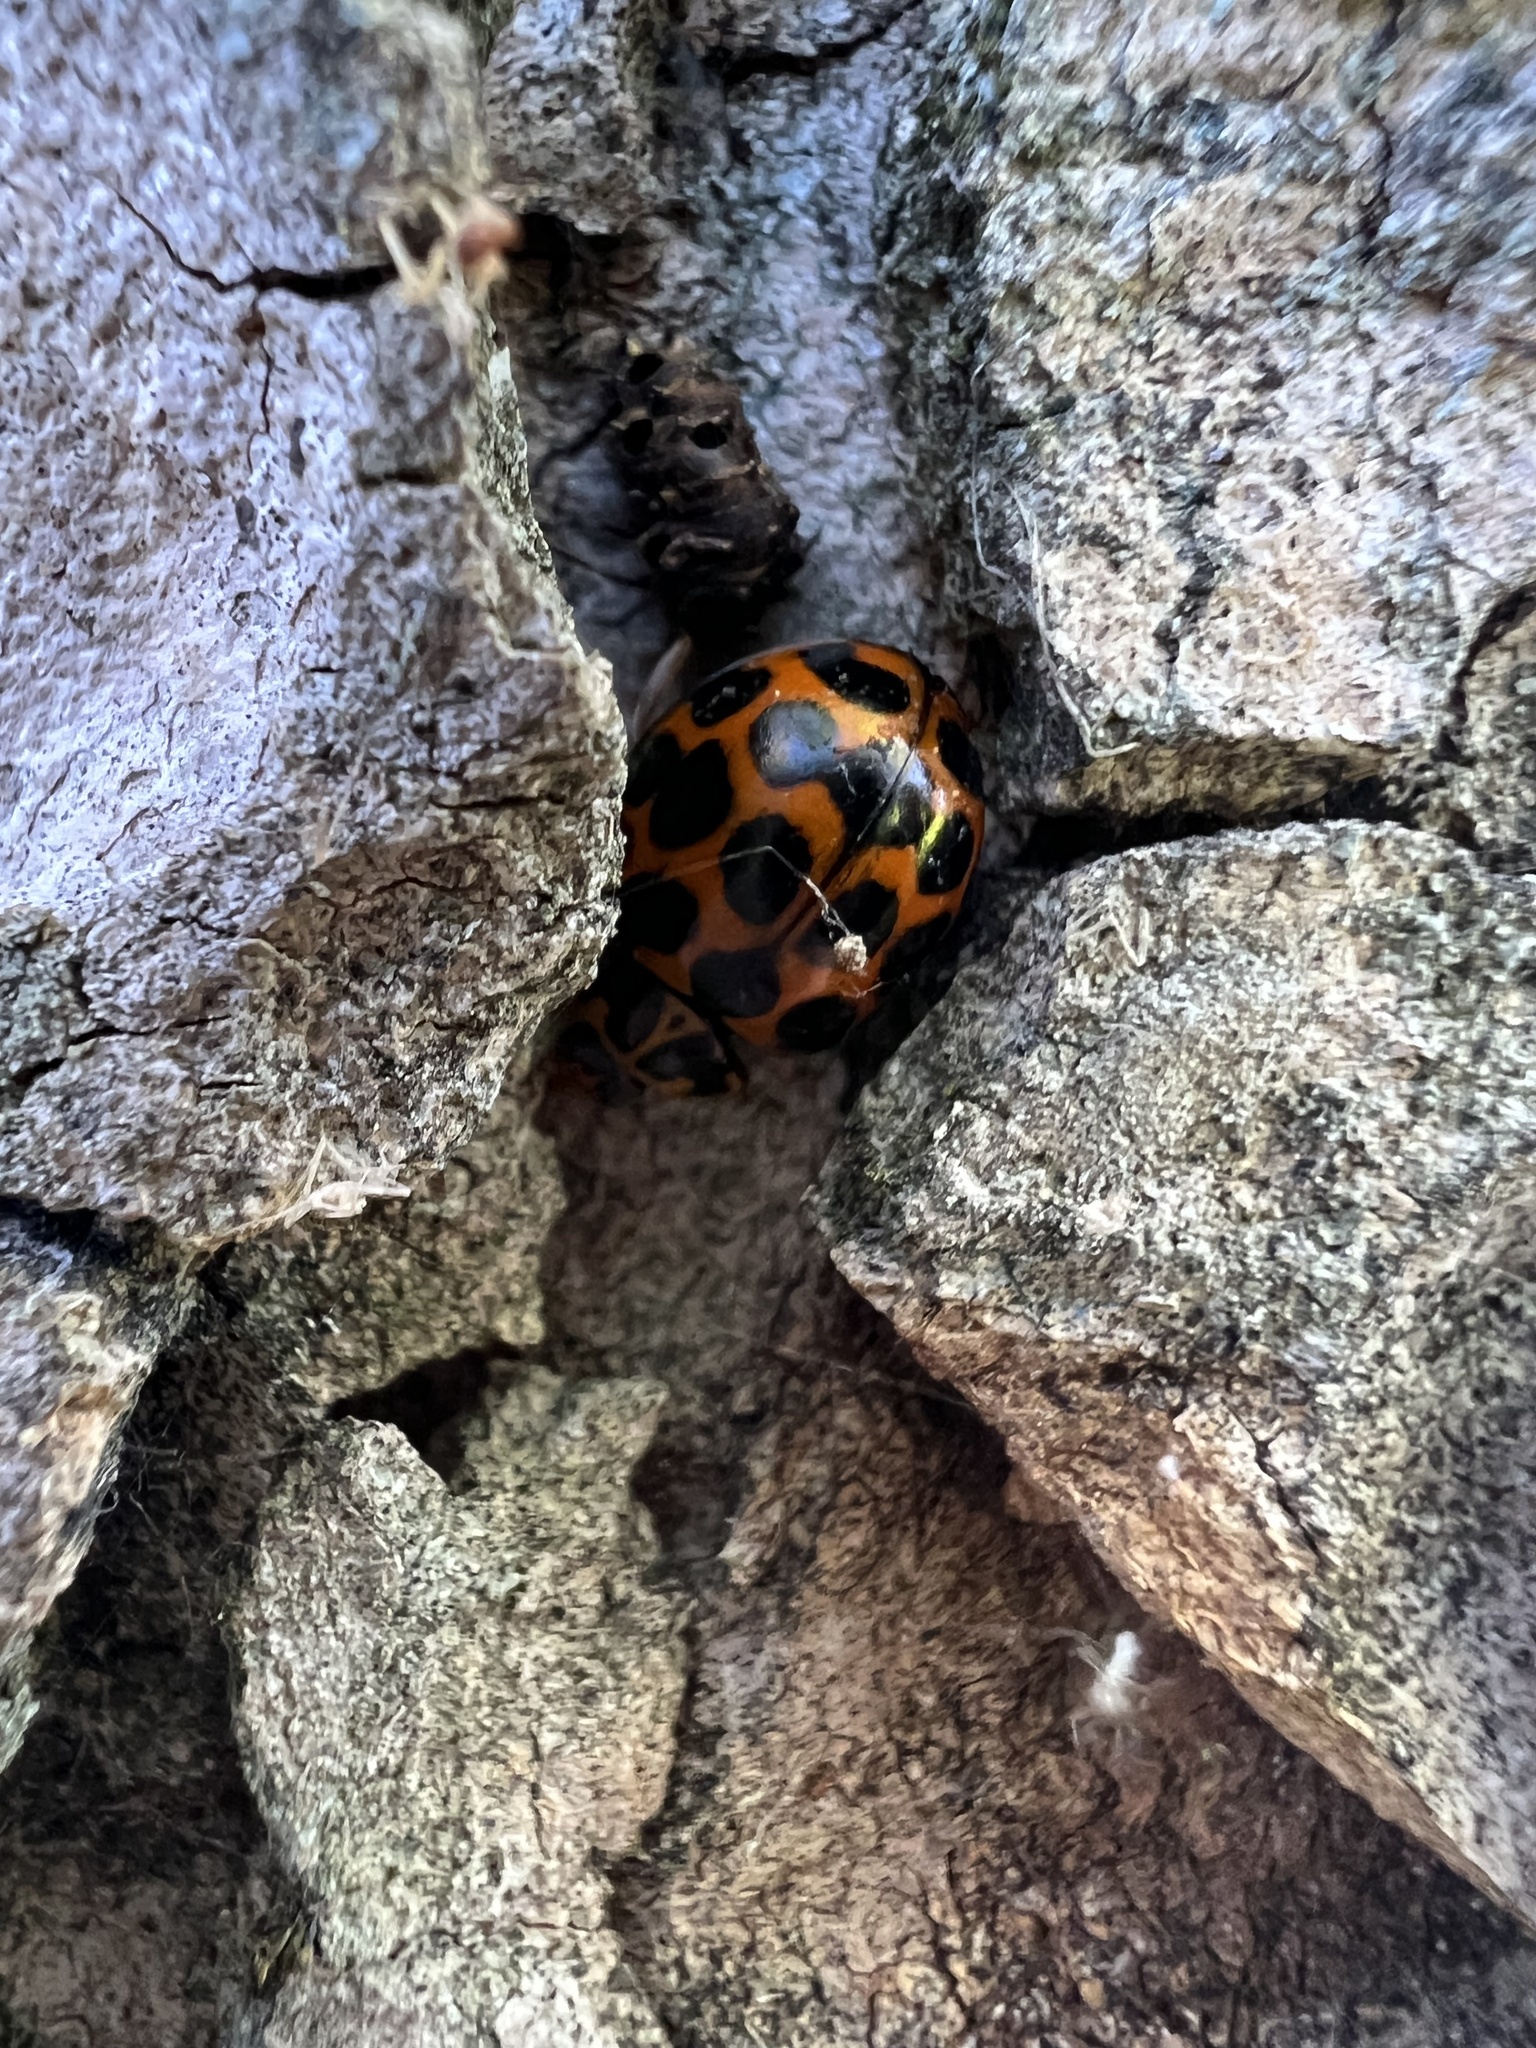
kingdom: Animalia
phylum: Arthropoda
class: Insecta
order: Coleoptera
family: Coccinellidae
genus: Harmonia
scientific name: Harmonia conformis
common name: Common spotted ladybird beetle
